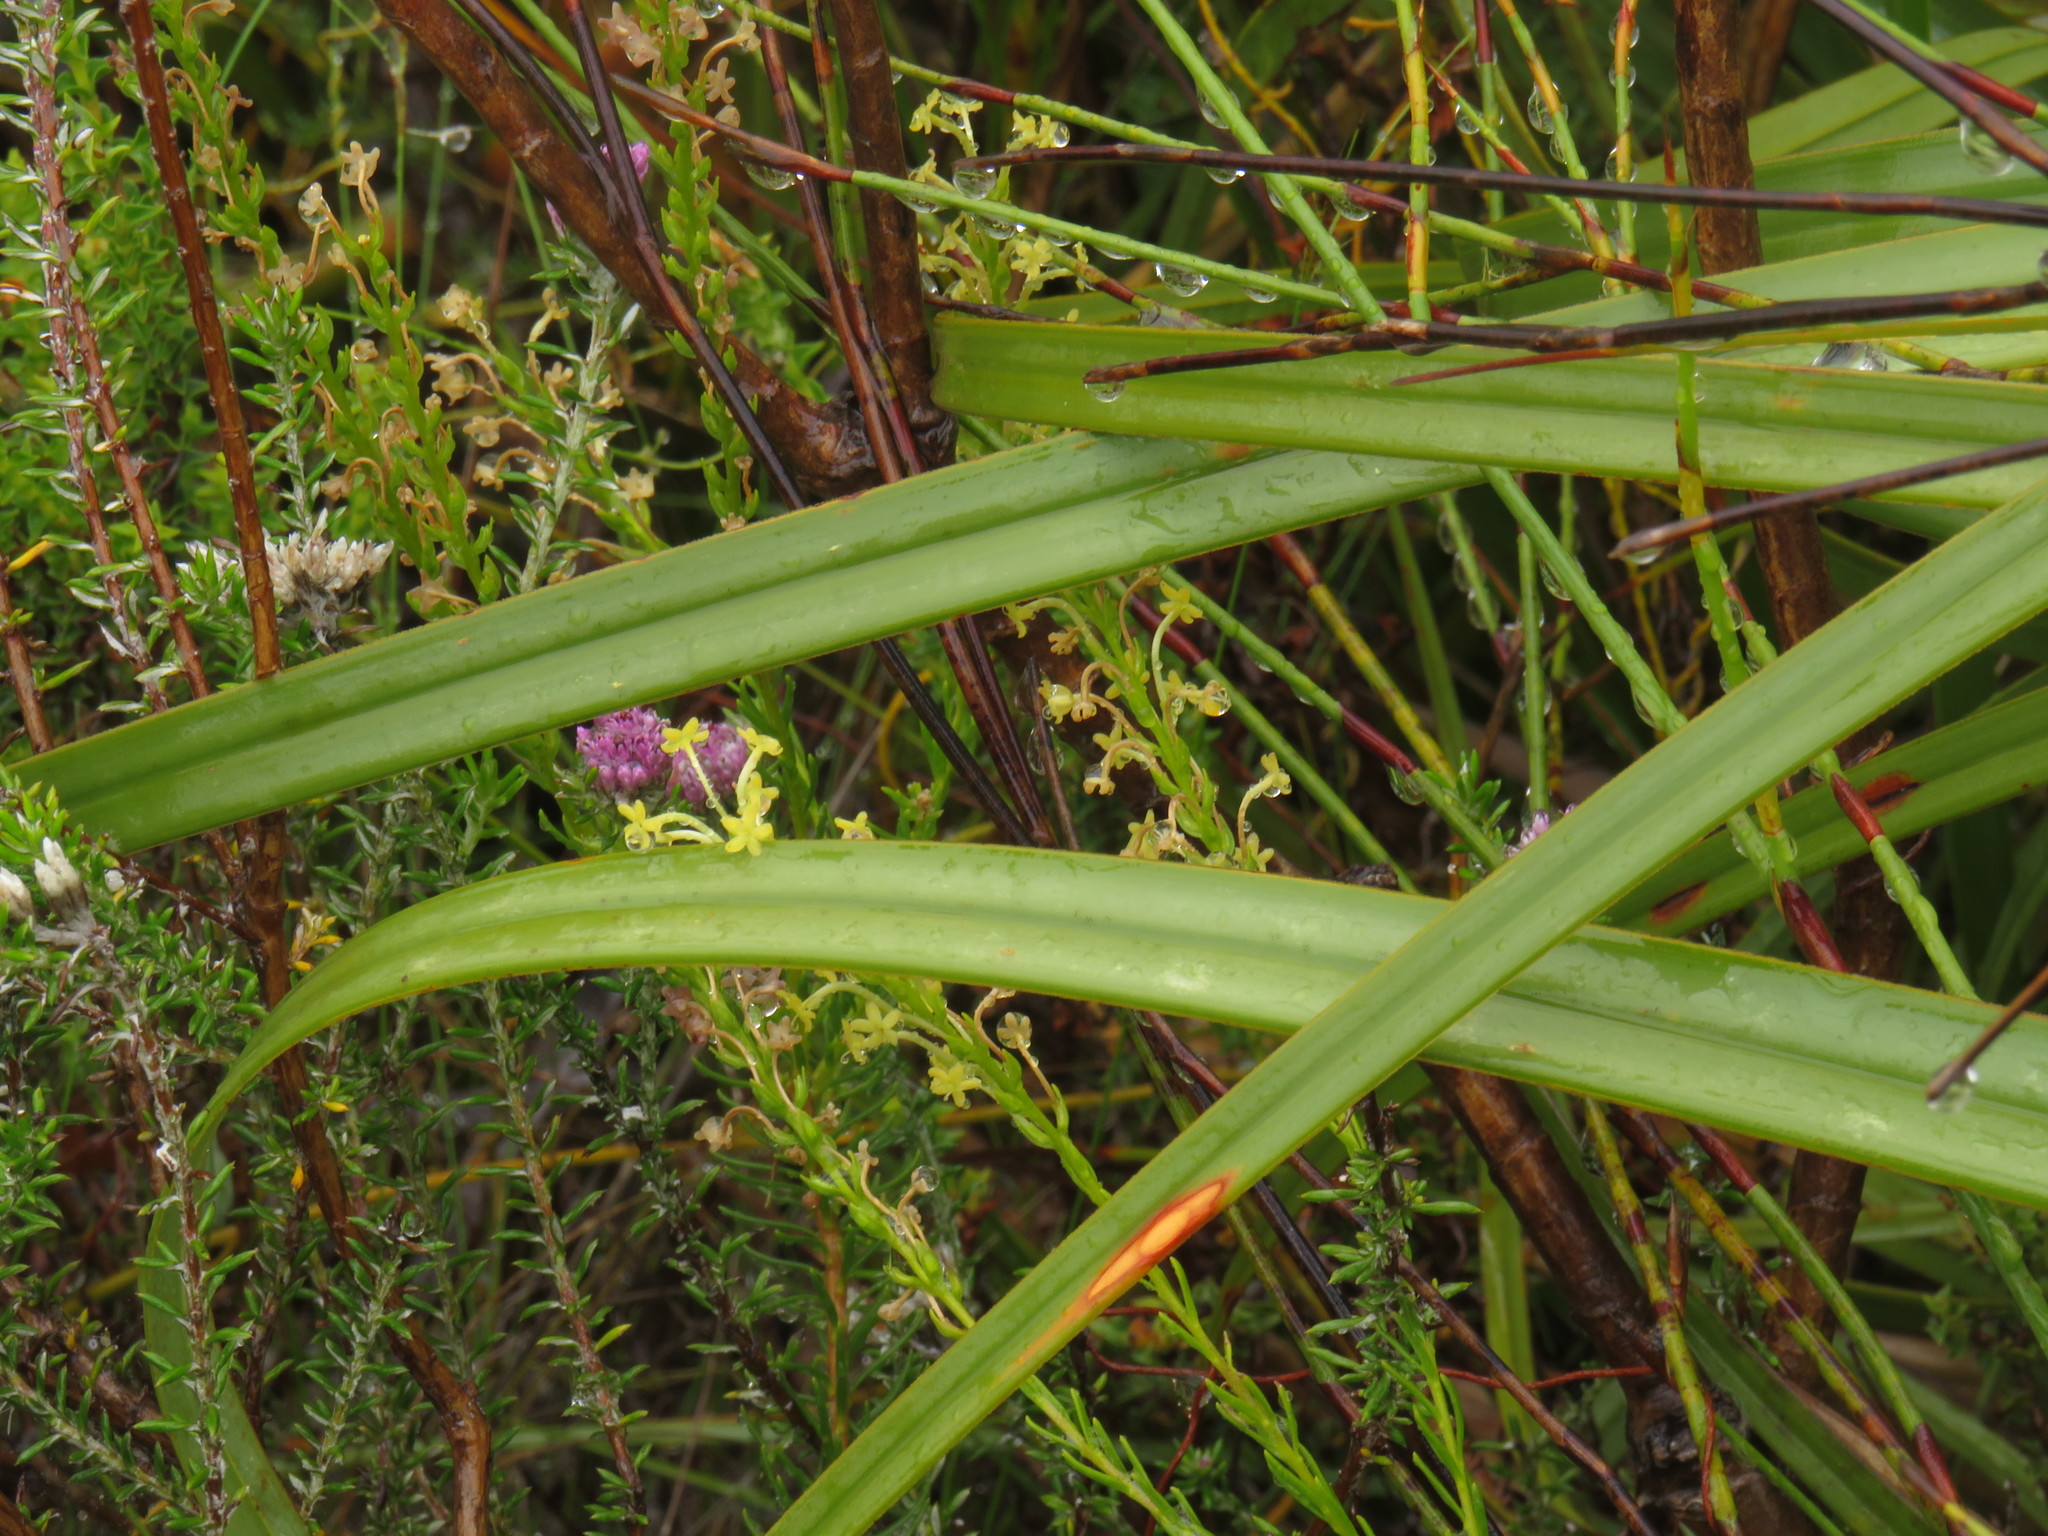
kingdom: Plantae
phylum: Tracheophyta
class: Magnoliopsida
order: Lamiales
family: Scrophulariaceae
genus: Microdon
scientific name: Microdon dubius
